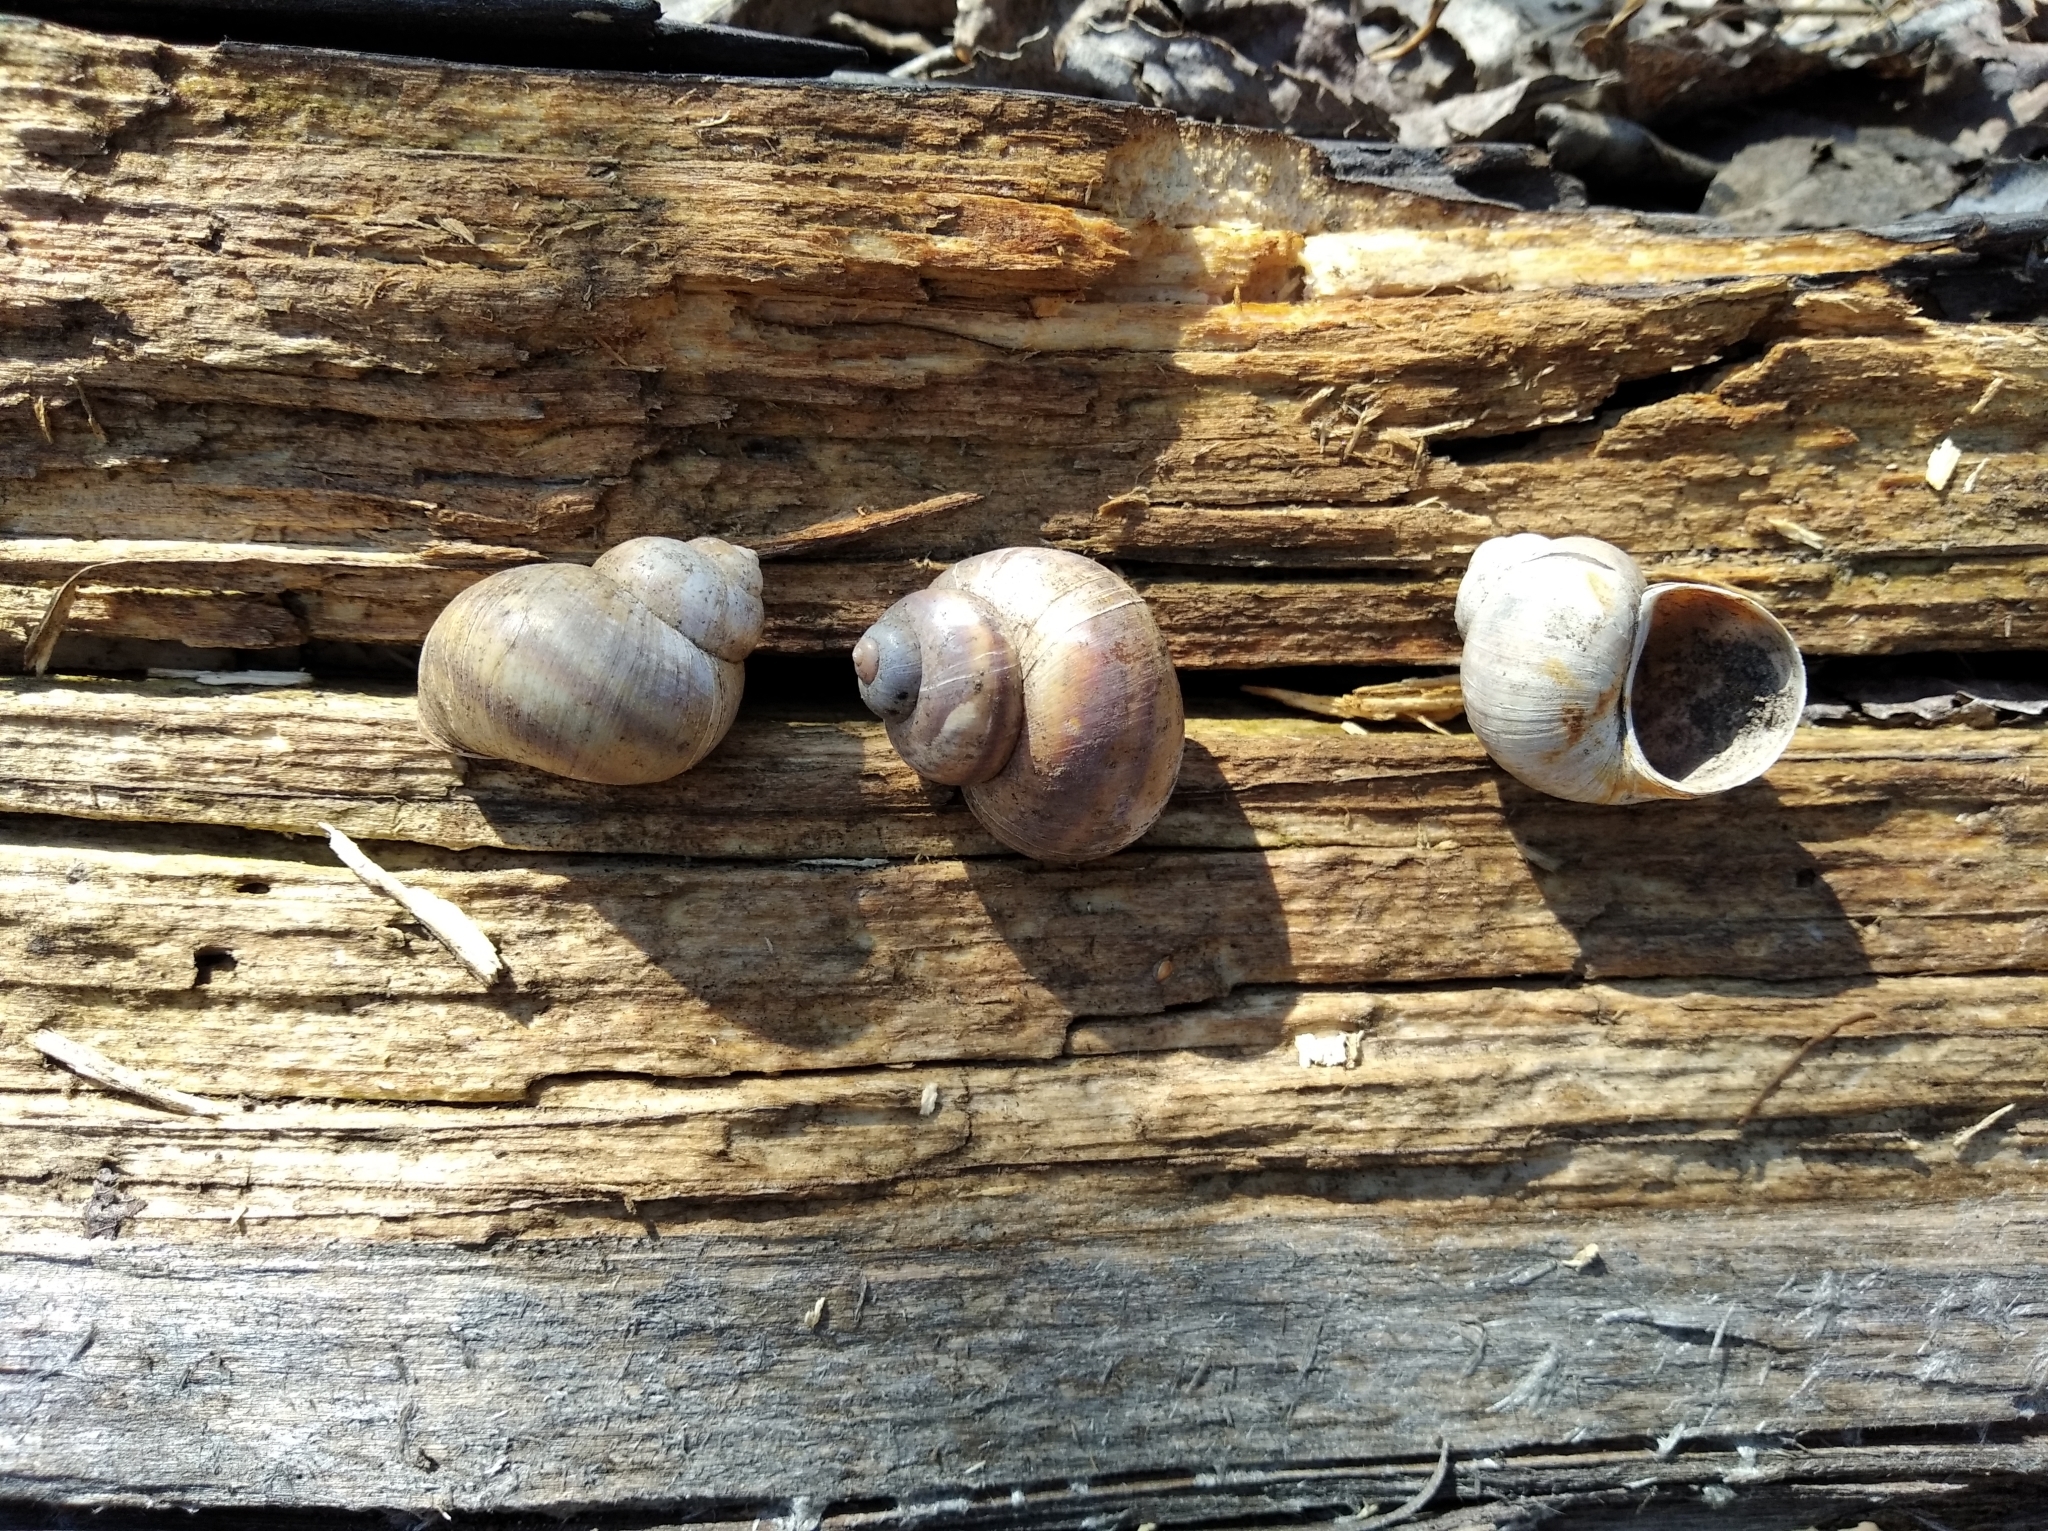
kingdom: Animalia
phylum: Mollusca
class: Gastropoda
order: Architaenioglossa
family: Viviparidae
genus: Viviparus
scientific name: Viviparus viviparus
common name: River snail
